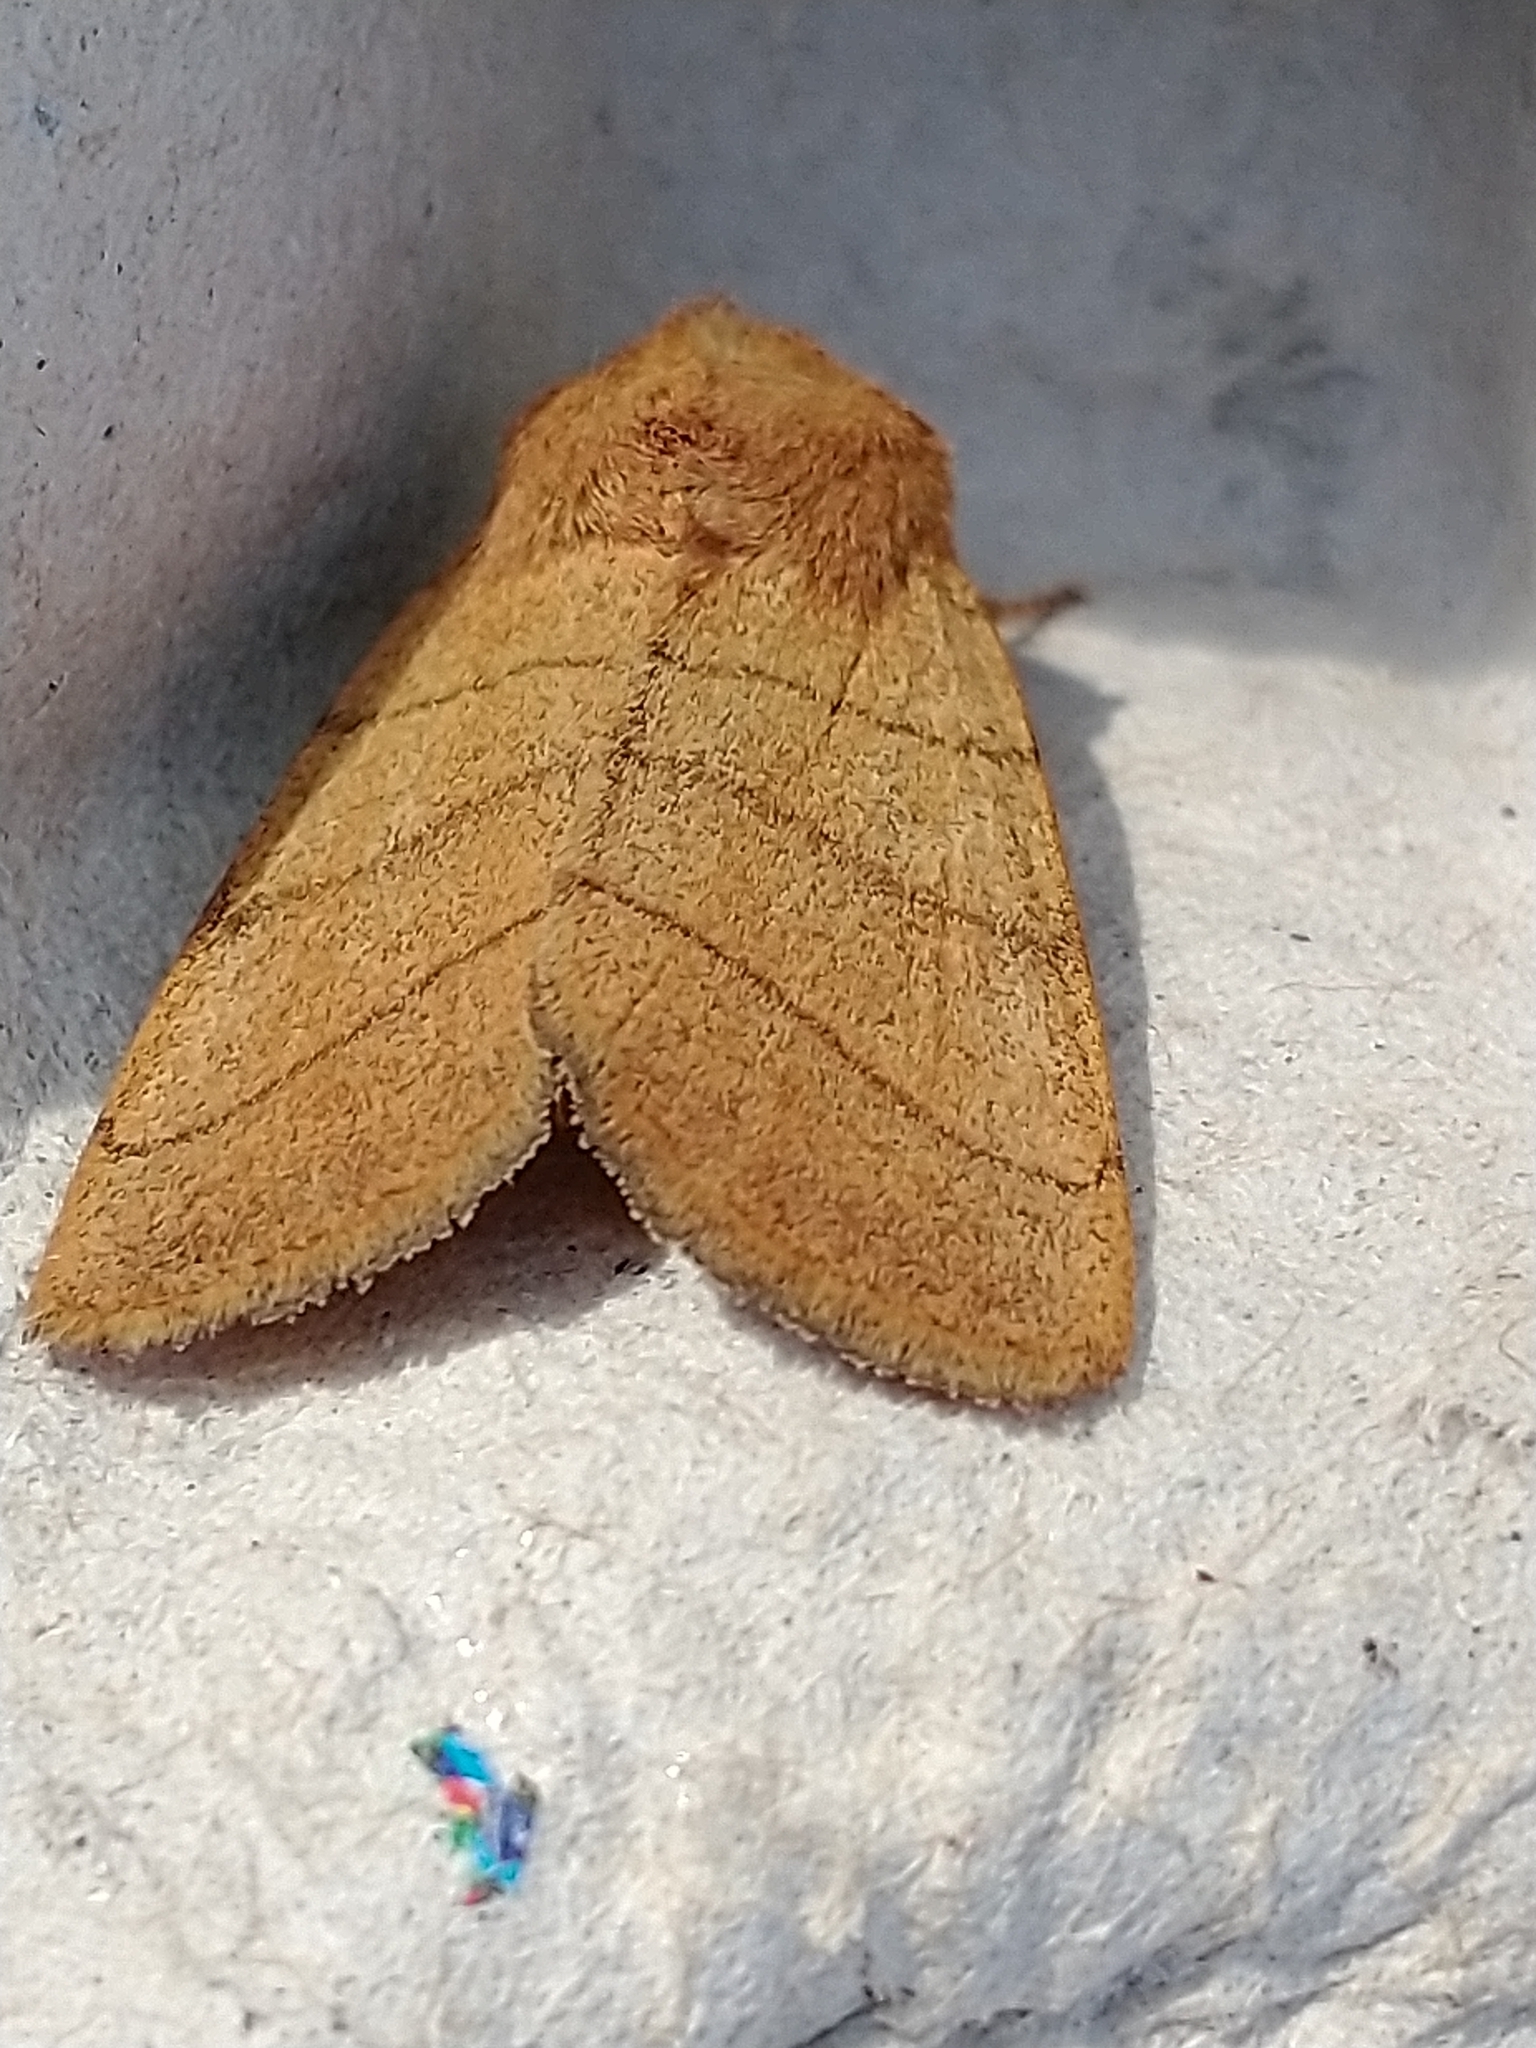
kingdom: Animalia
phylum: Arthropoda
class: Insecta
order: Lepidoptera
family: Noctuidae
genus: Charanyca
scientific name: Charanyca trigrammica
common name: Treble lines
